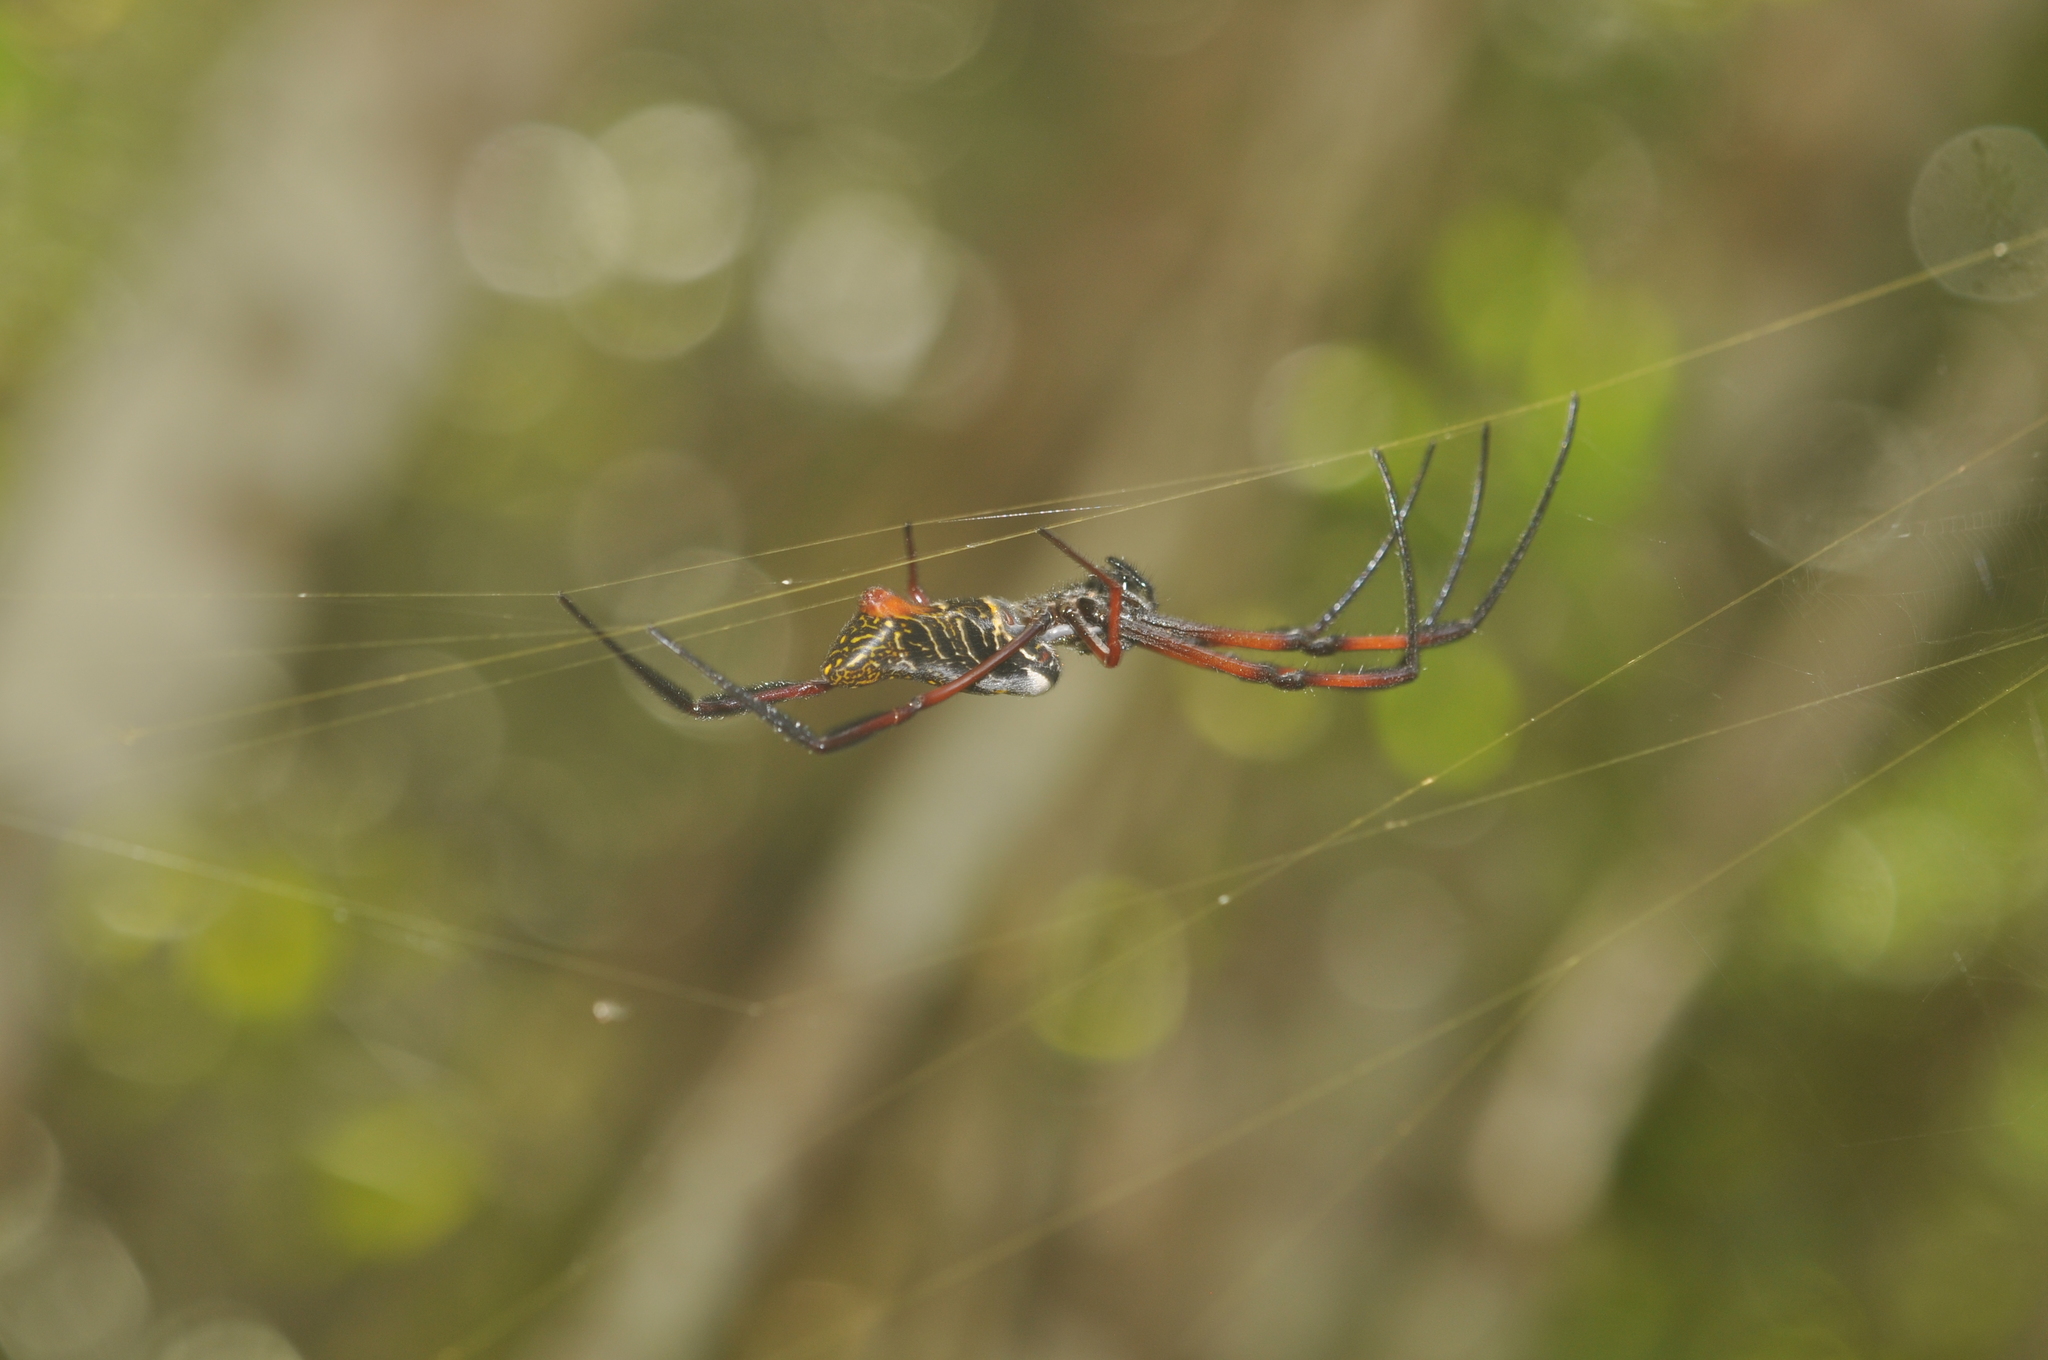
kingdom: Animalia
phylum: Arthropoda
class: Arachnida
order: Araneae
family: Araneidae
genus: Trichonephila
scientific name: Trichonephila inaurata
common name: Red-legged golden orb weaver
